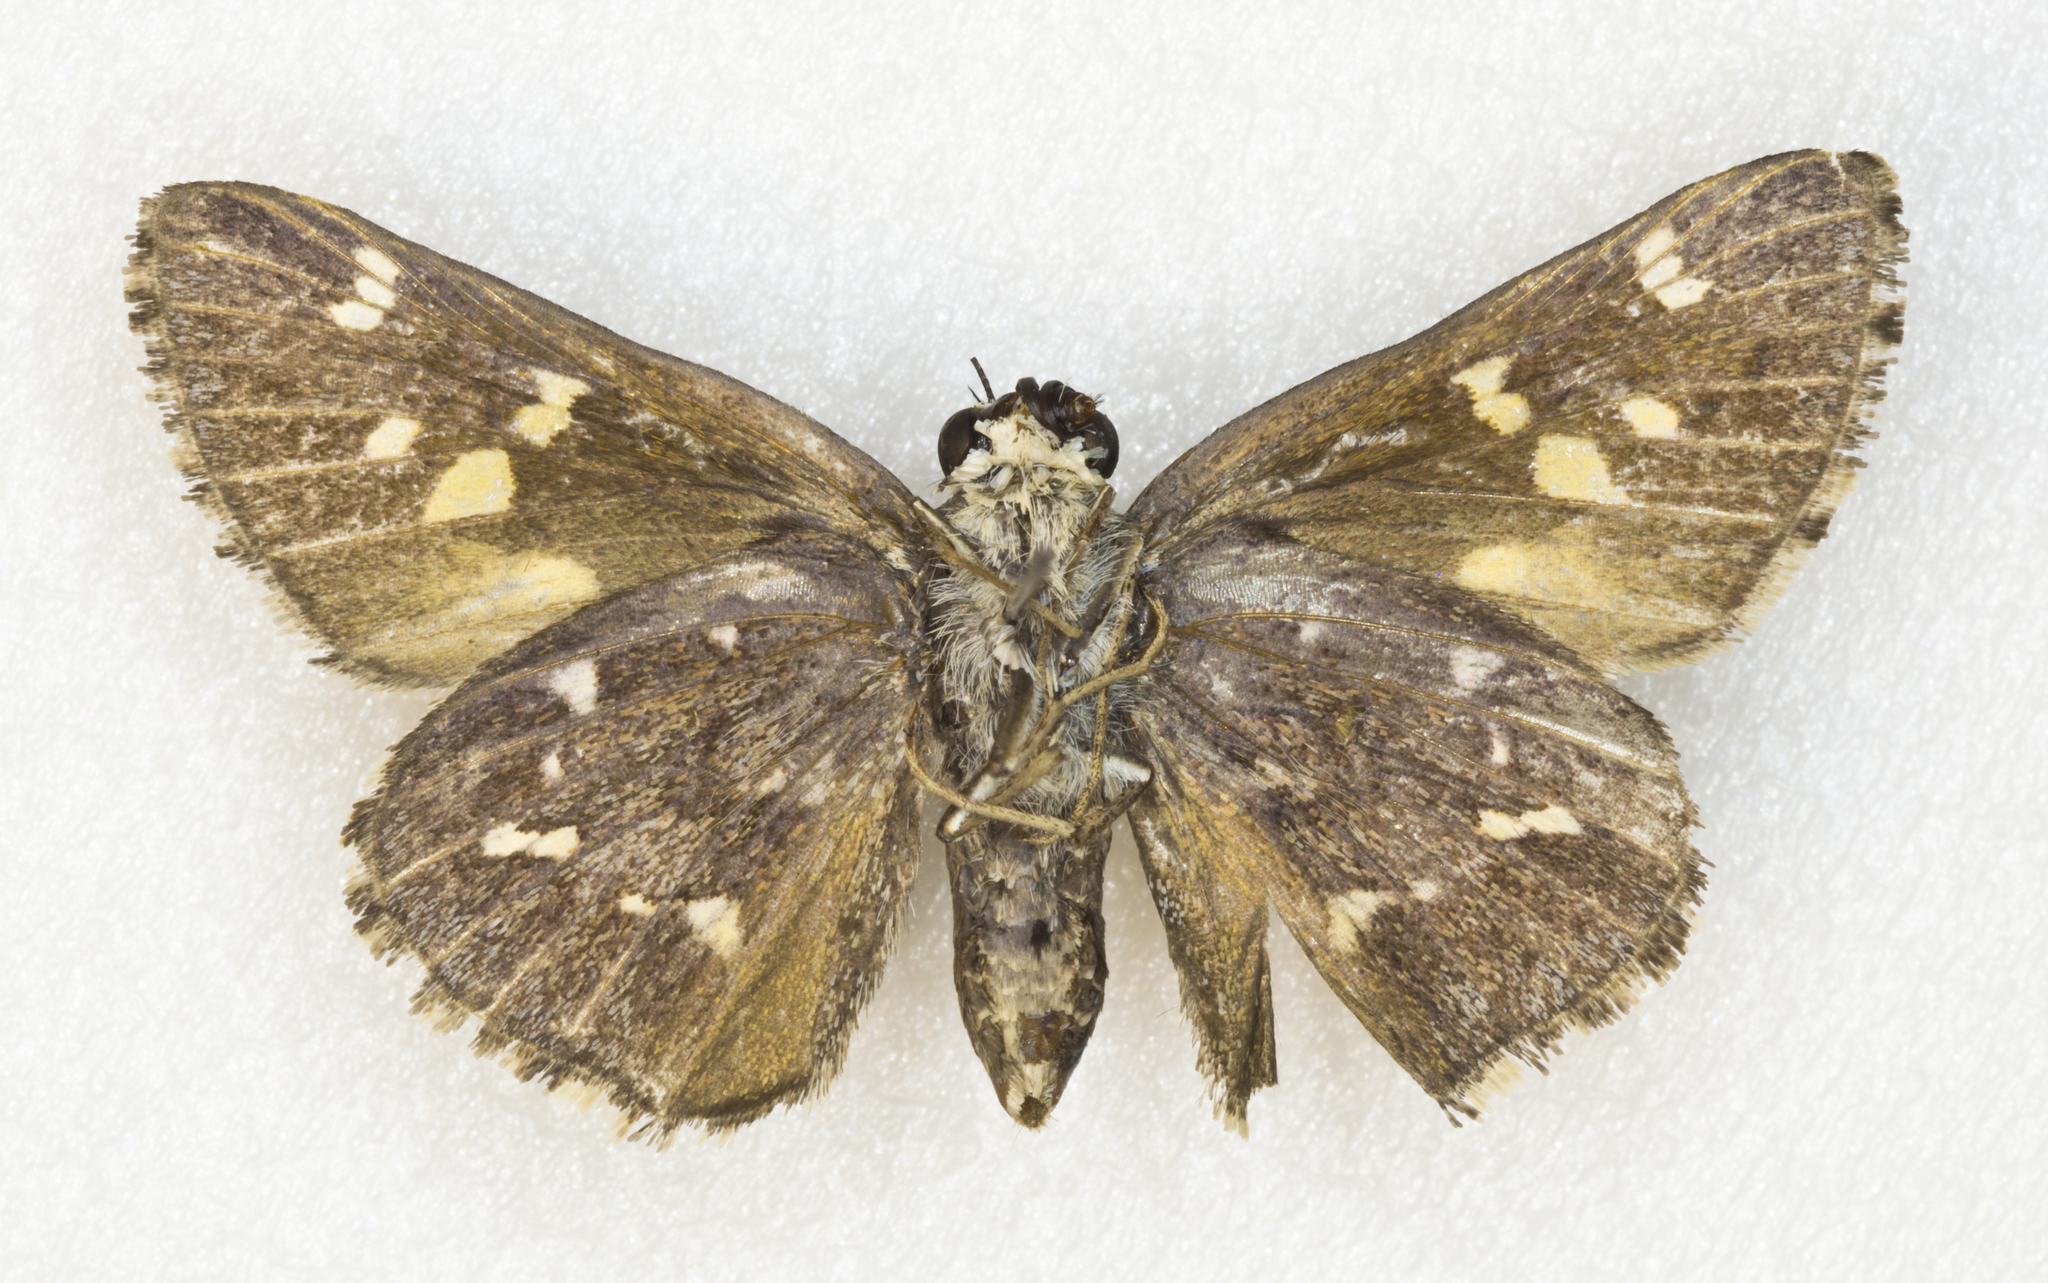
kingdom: Animalia
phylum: Arthropoda
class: Insecta
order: Lepidoptera
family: Hesperiidae
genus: Atrytonopsis
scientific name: Atrytonopsis python
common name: Python skipper
